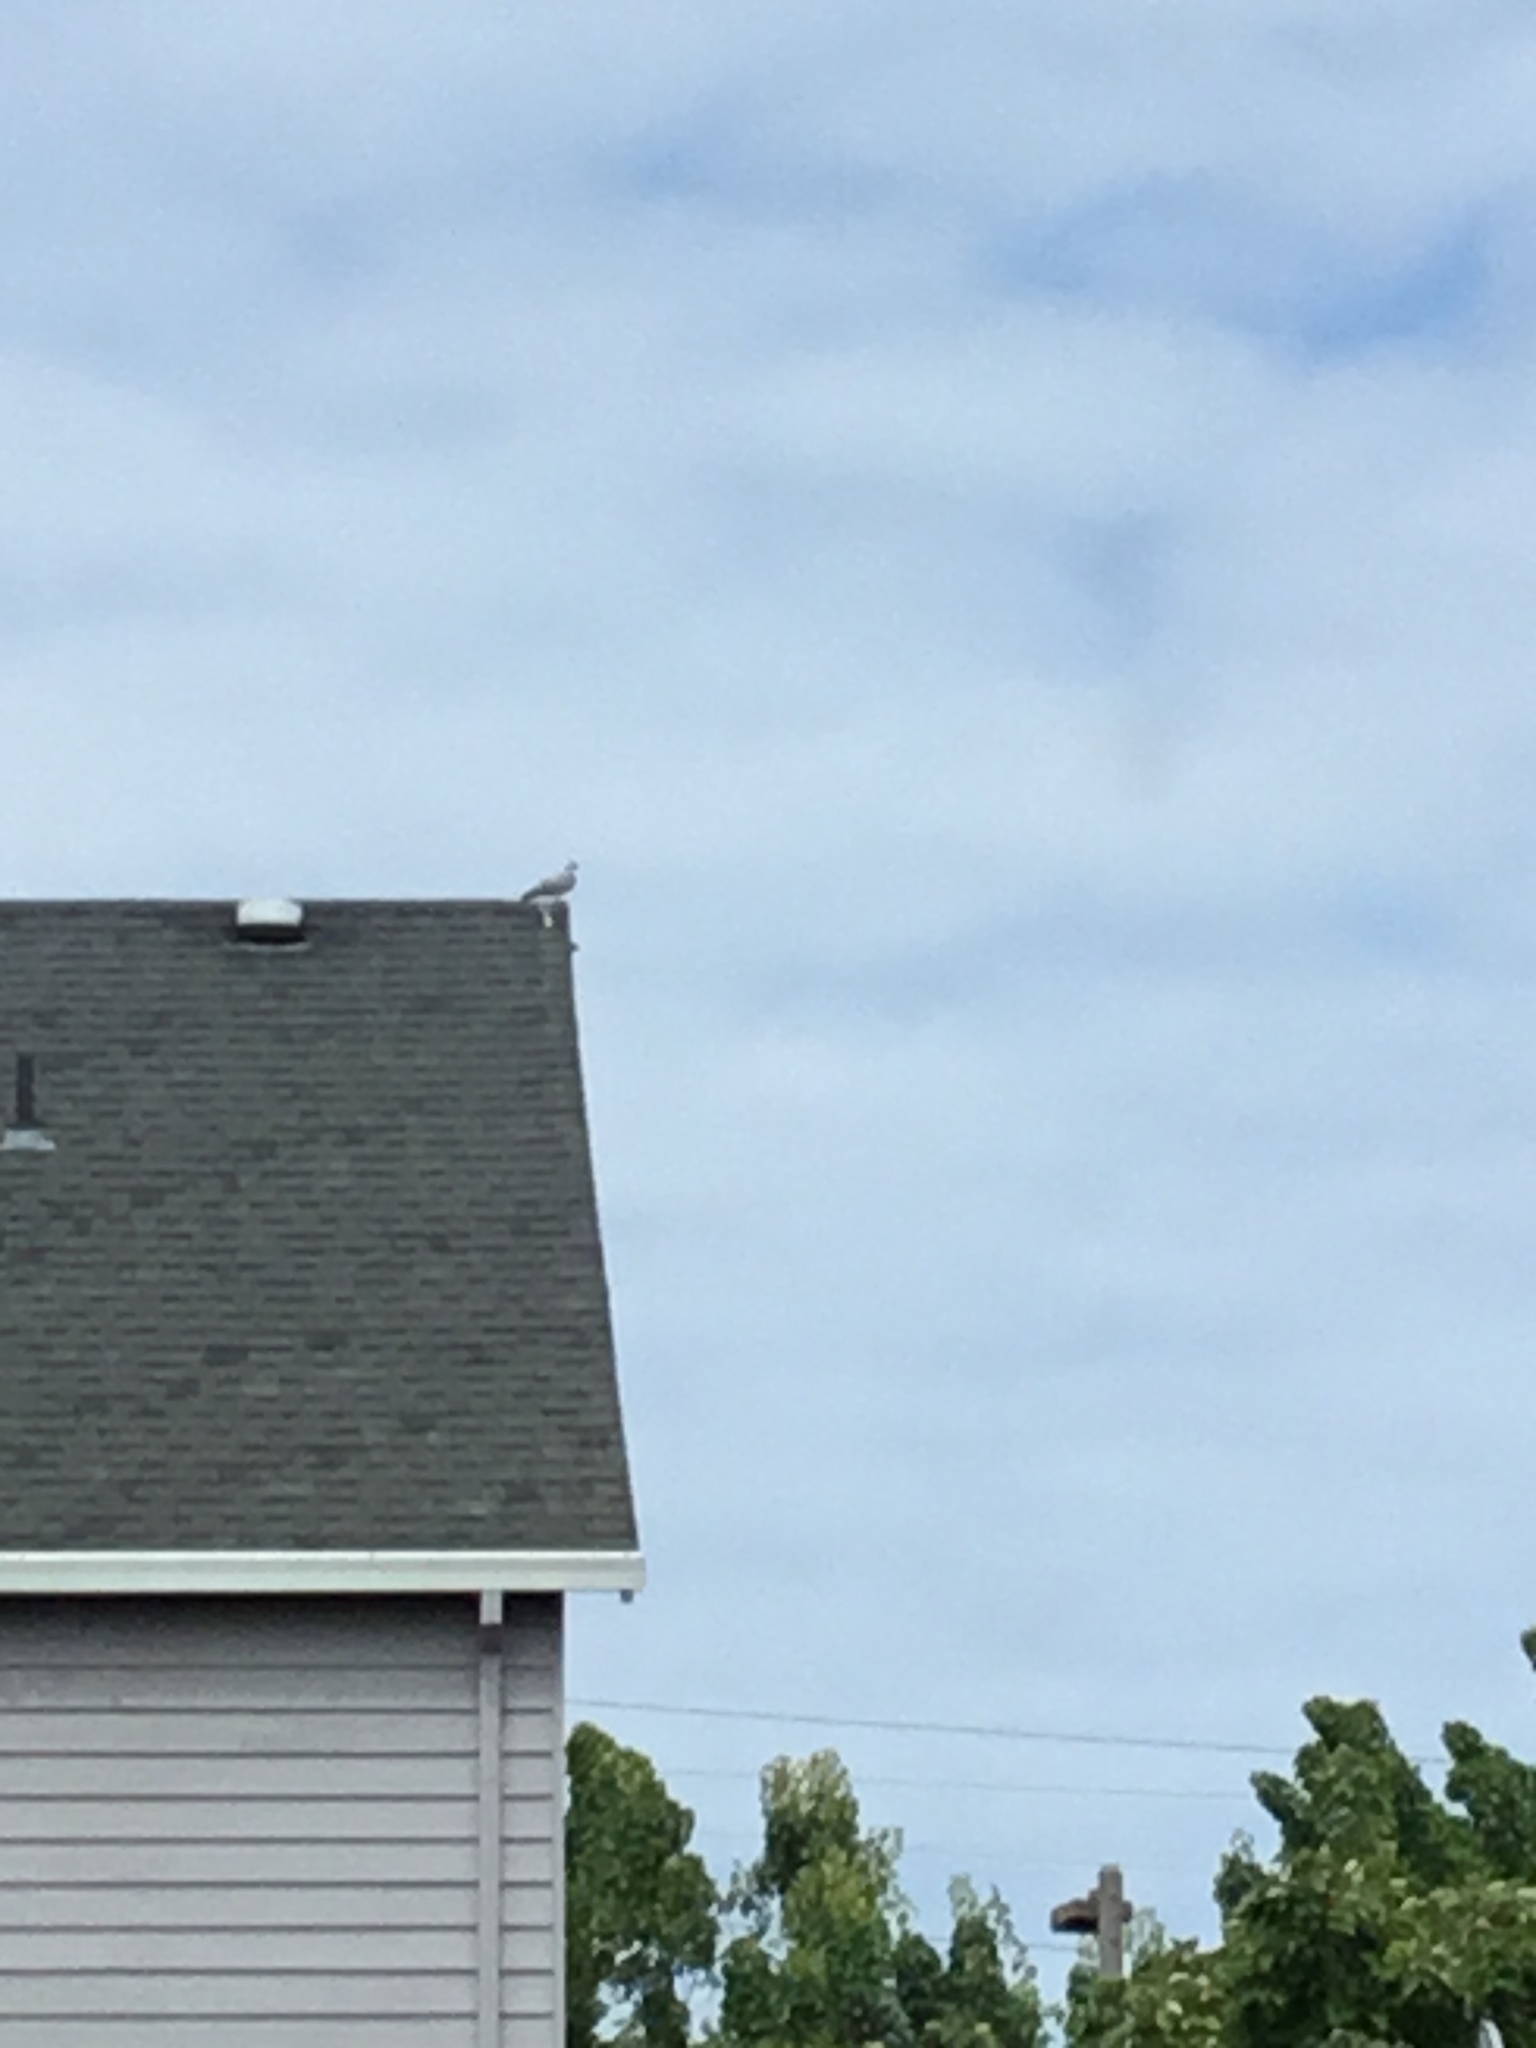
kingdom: Animalia
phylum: Chordata
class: Aves
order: Columbiformes
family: Columbidae
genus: Columba
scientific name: Columba livia
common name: Rock pigeon
